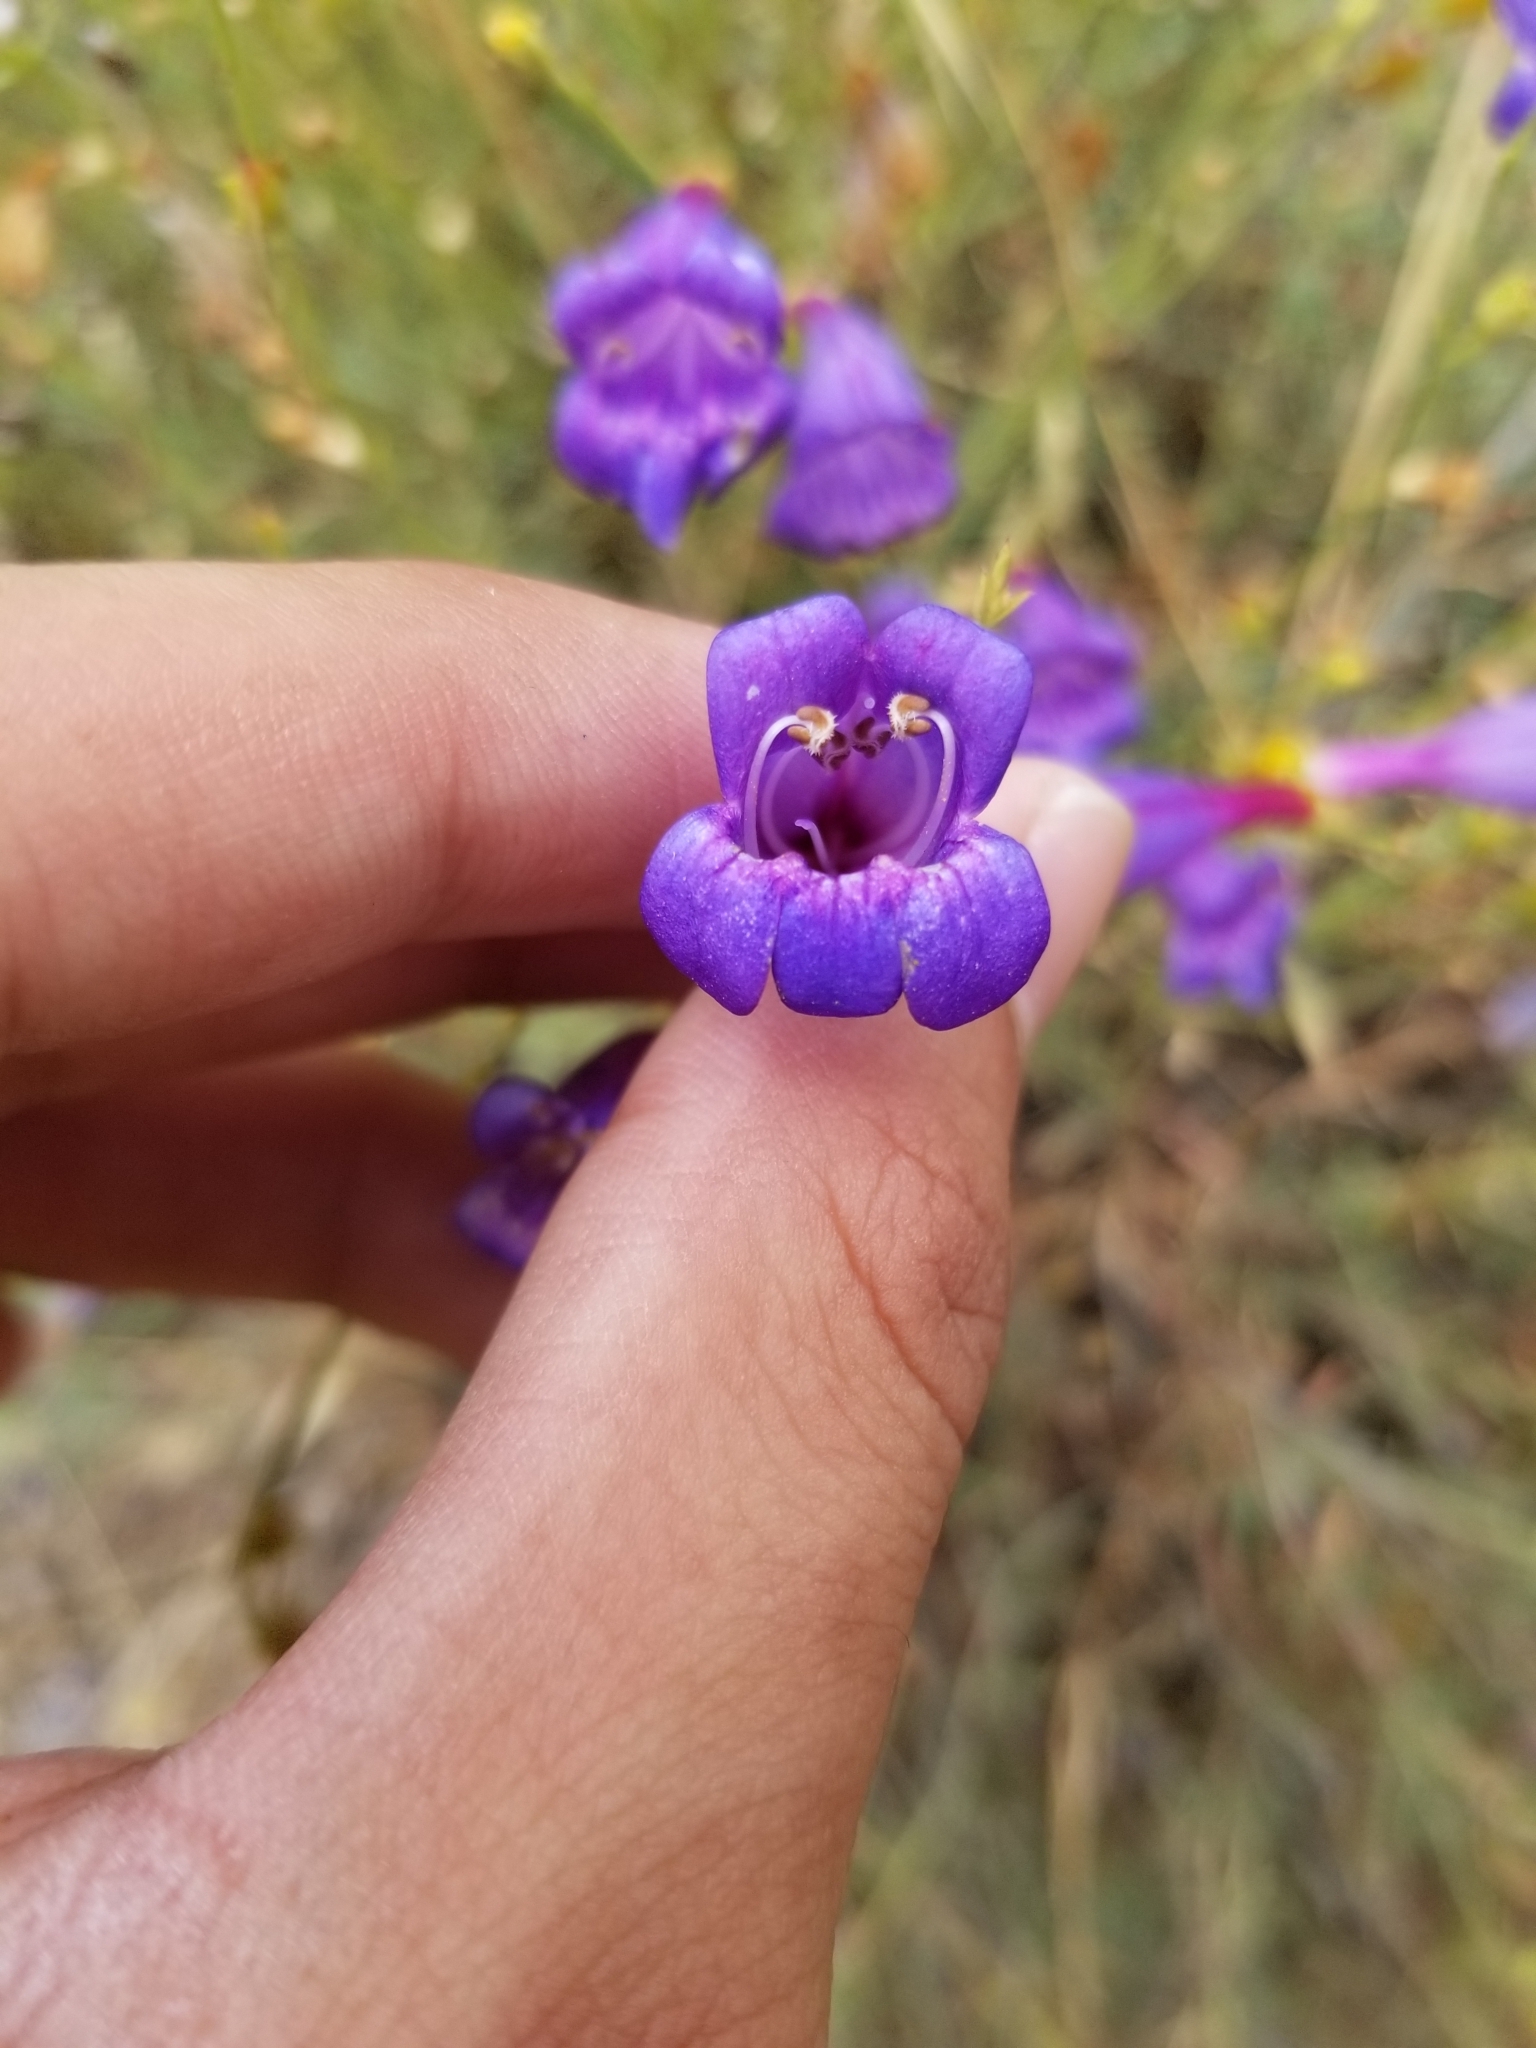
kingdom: Plantae
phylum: Tracheophyta
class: Magnoliopsida
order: Lamiales
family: Plantaginaceae
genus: Penstemon
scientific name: Penstemon heterophyllus
